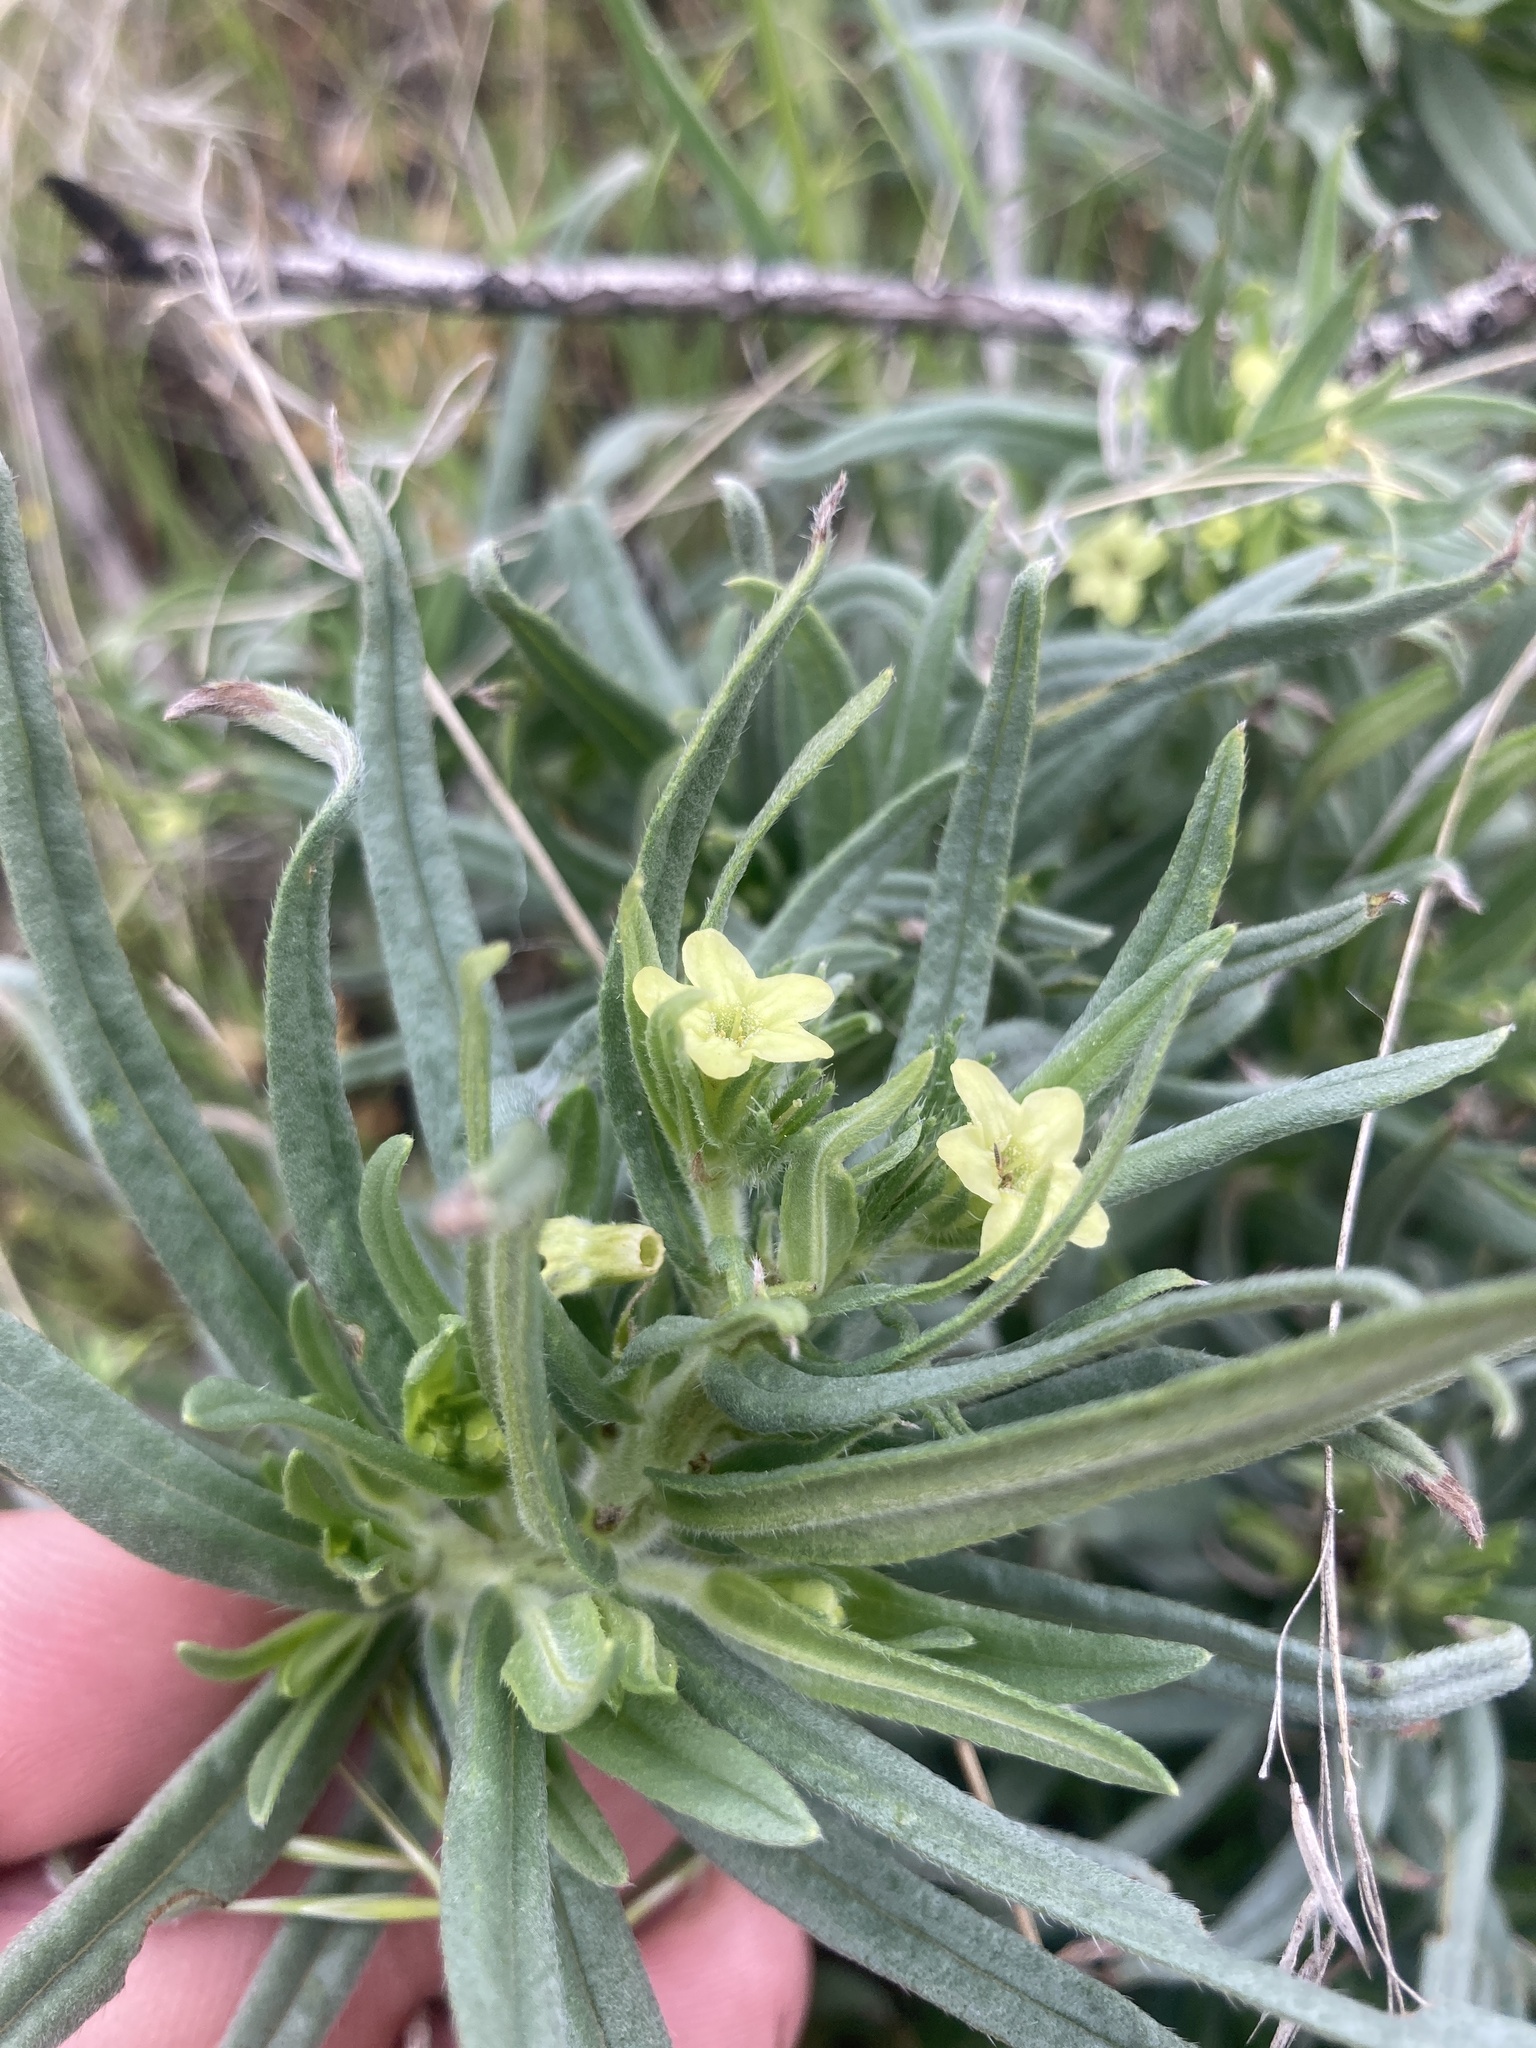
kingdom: Plantae
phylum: Tracheophyta
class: Magnoliopsida
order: Boraginales
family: Boraginaceae
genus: Lithospermum
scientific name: Lithospermum ruderale
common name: Western gromwell
